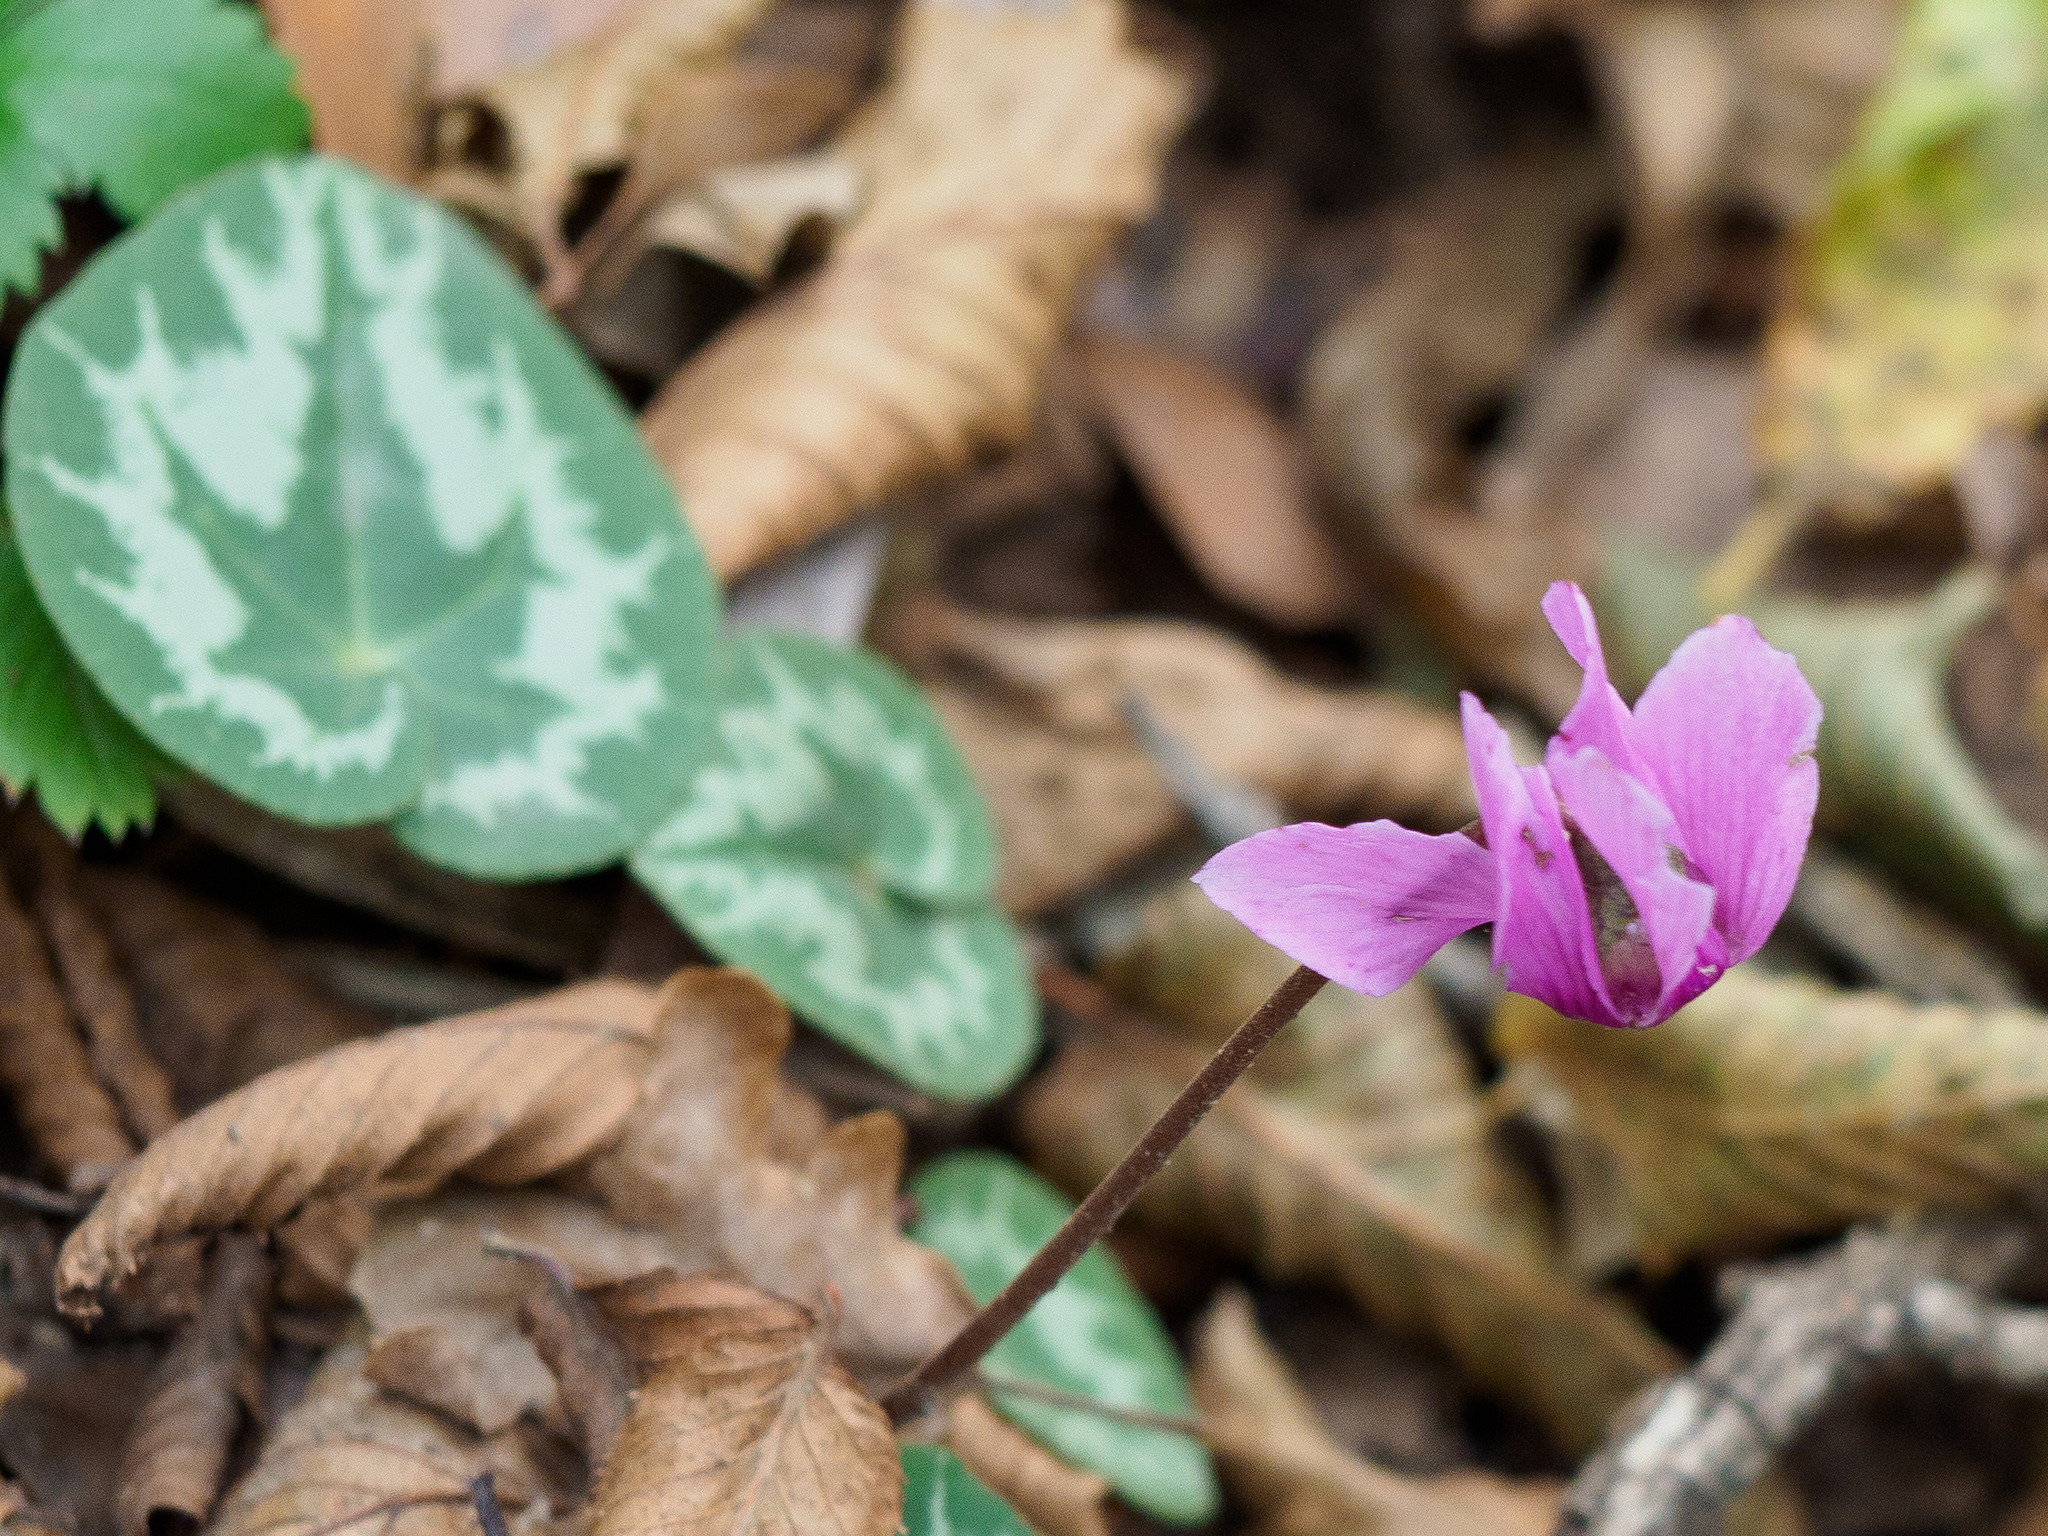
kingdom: Plantae
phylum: Tracheophyta
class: Magnoliopsida
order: Ericales
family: Primulaceae
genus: Cyclamen
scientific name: Cyclamen purpurascens
